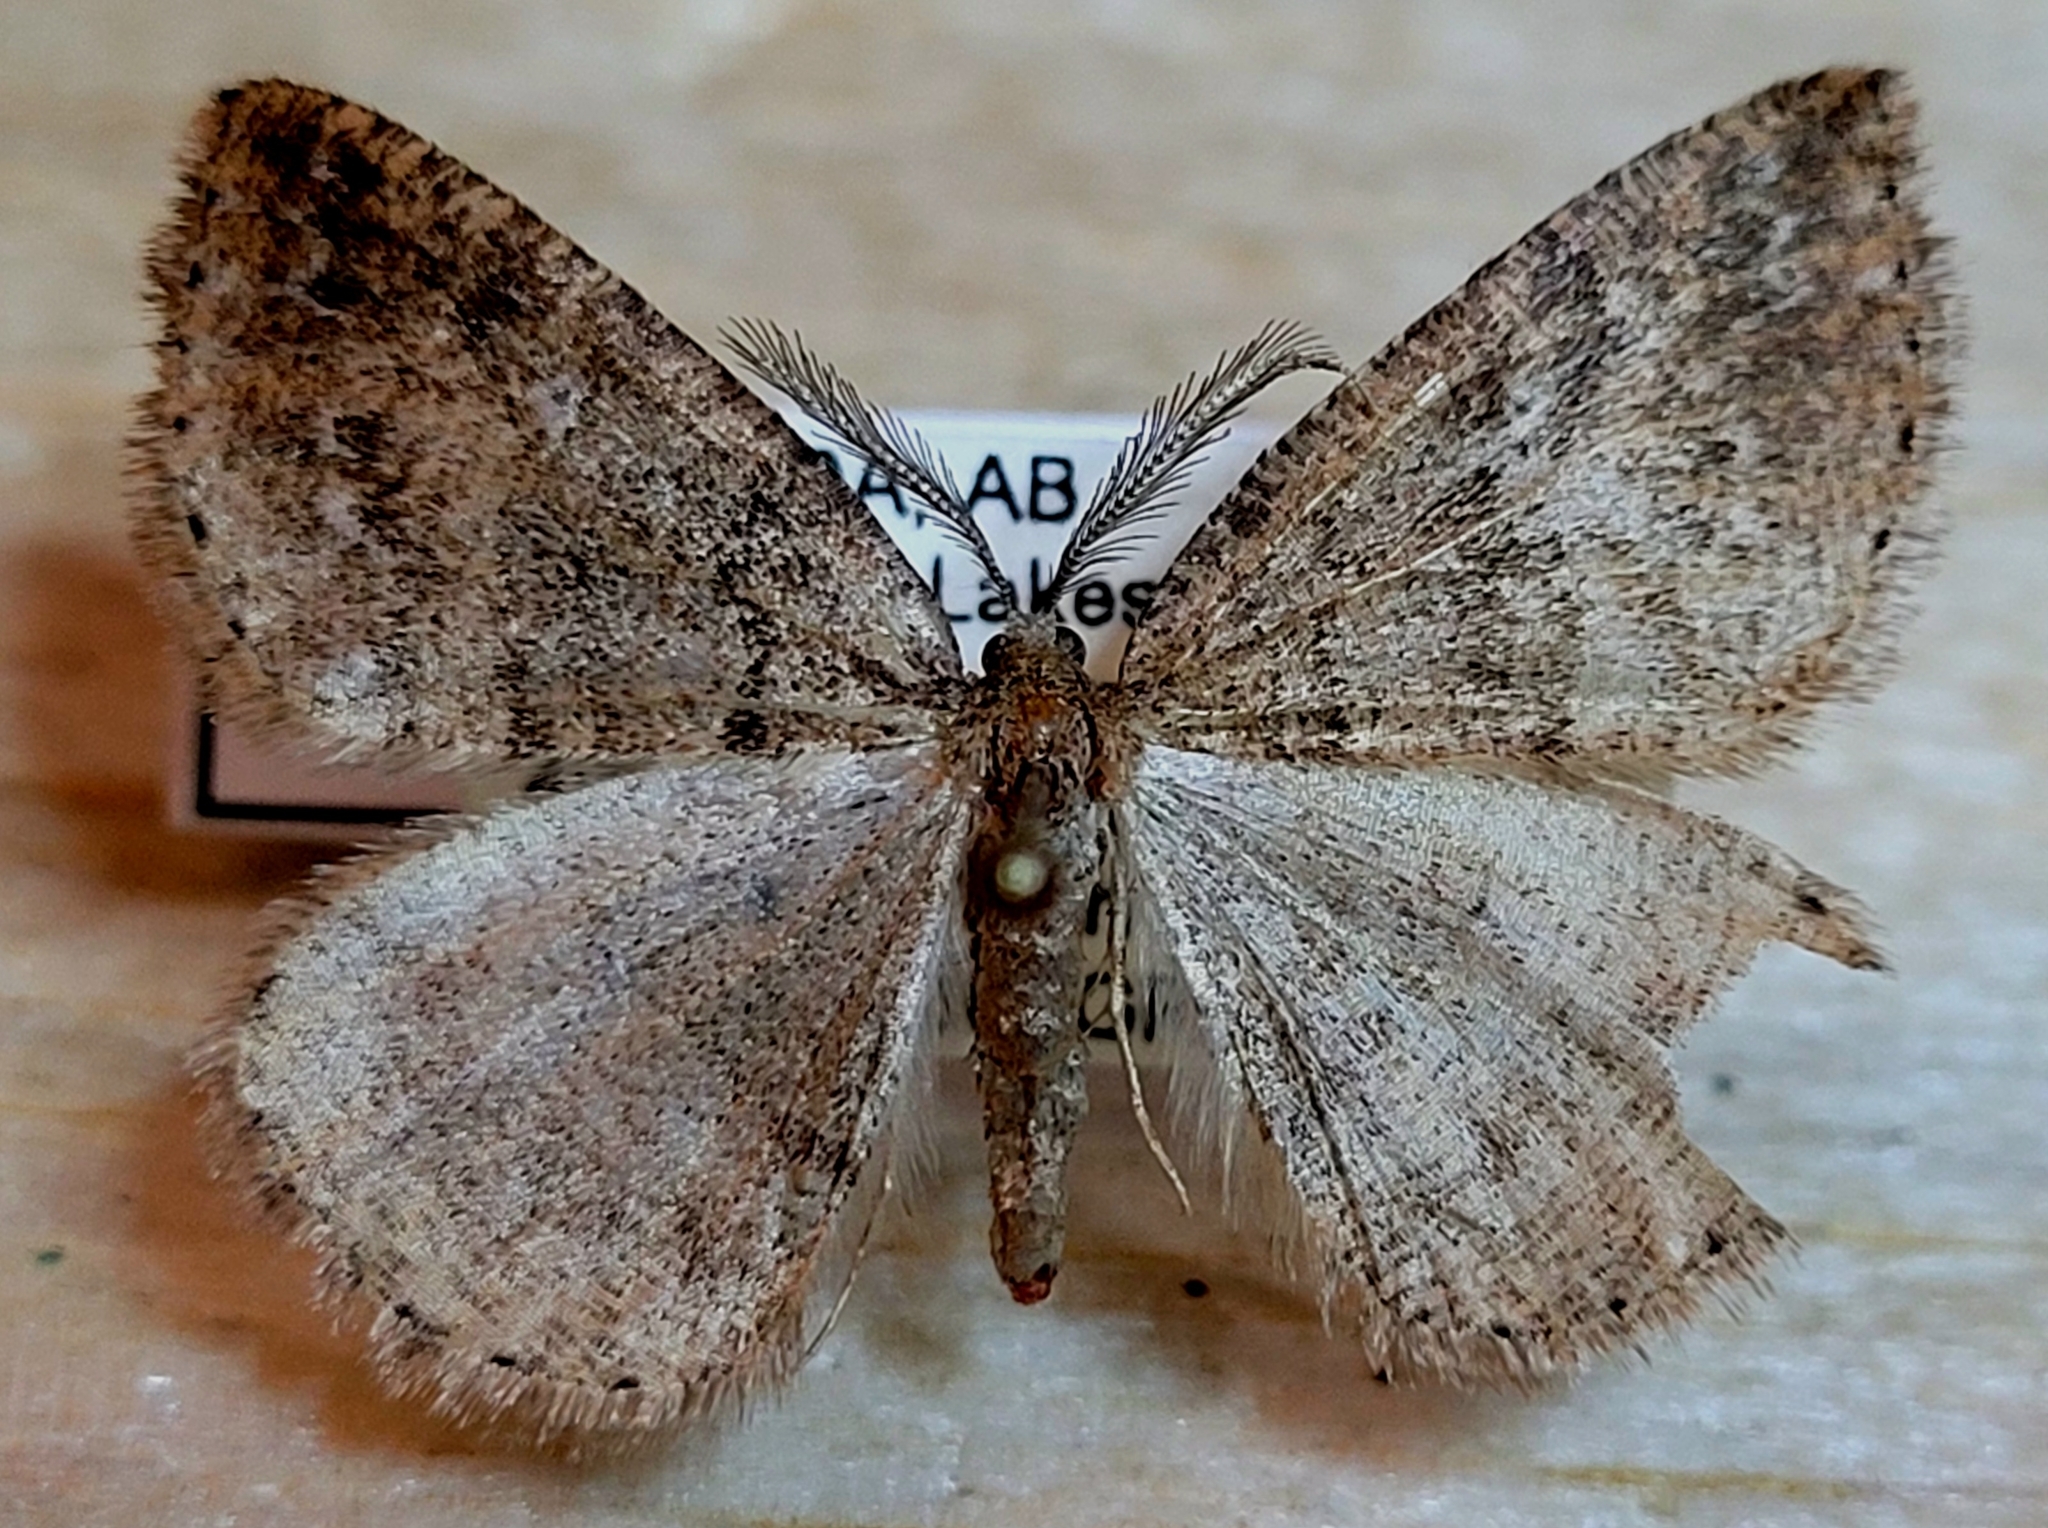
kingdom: Animalia
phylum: Arthropoda
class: Insecta
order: Lepidoptera
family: Geometridae
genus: Drepanulatrix
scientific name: Drepanulatrix faeminaria
